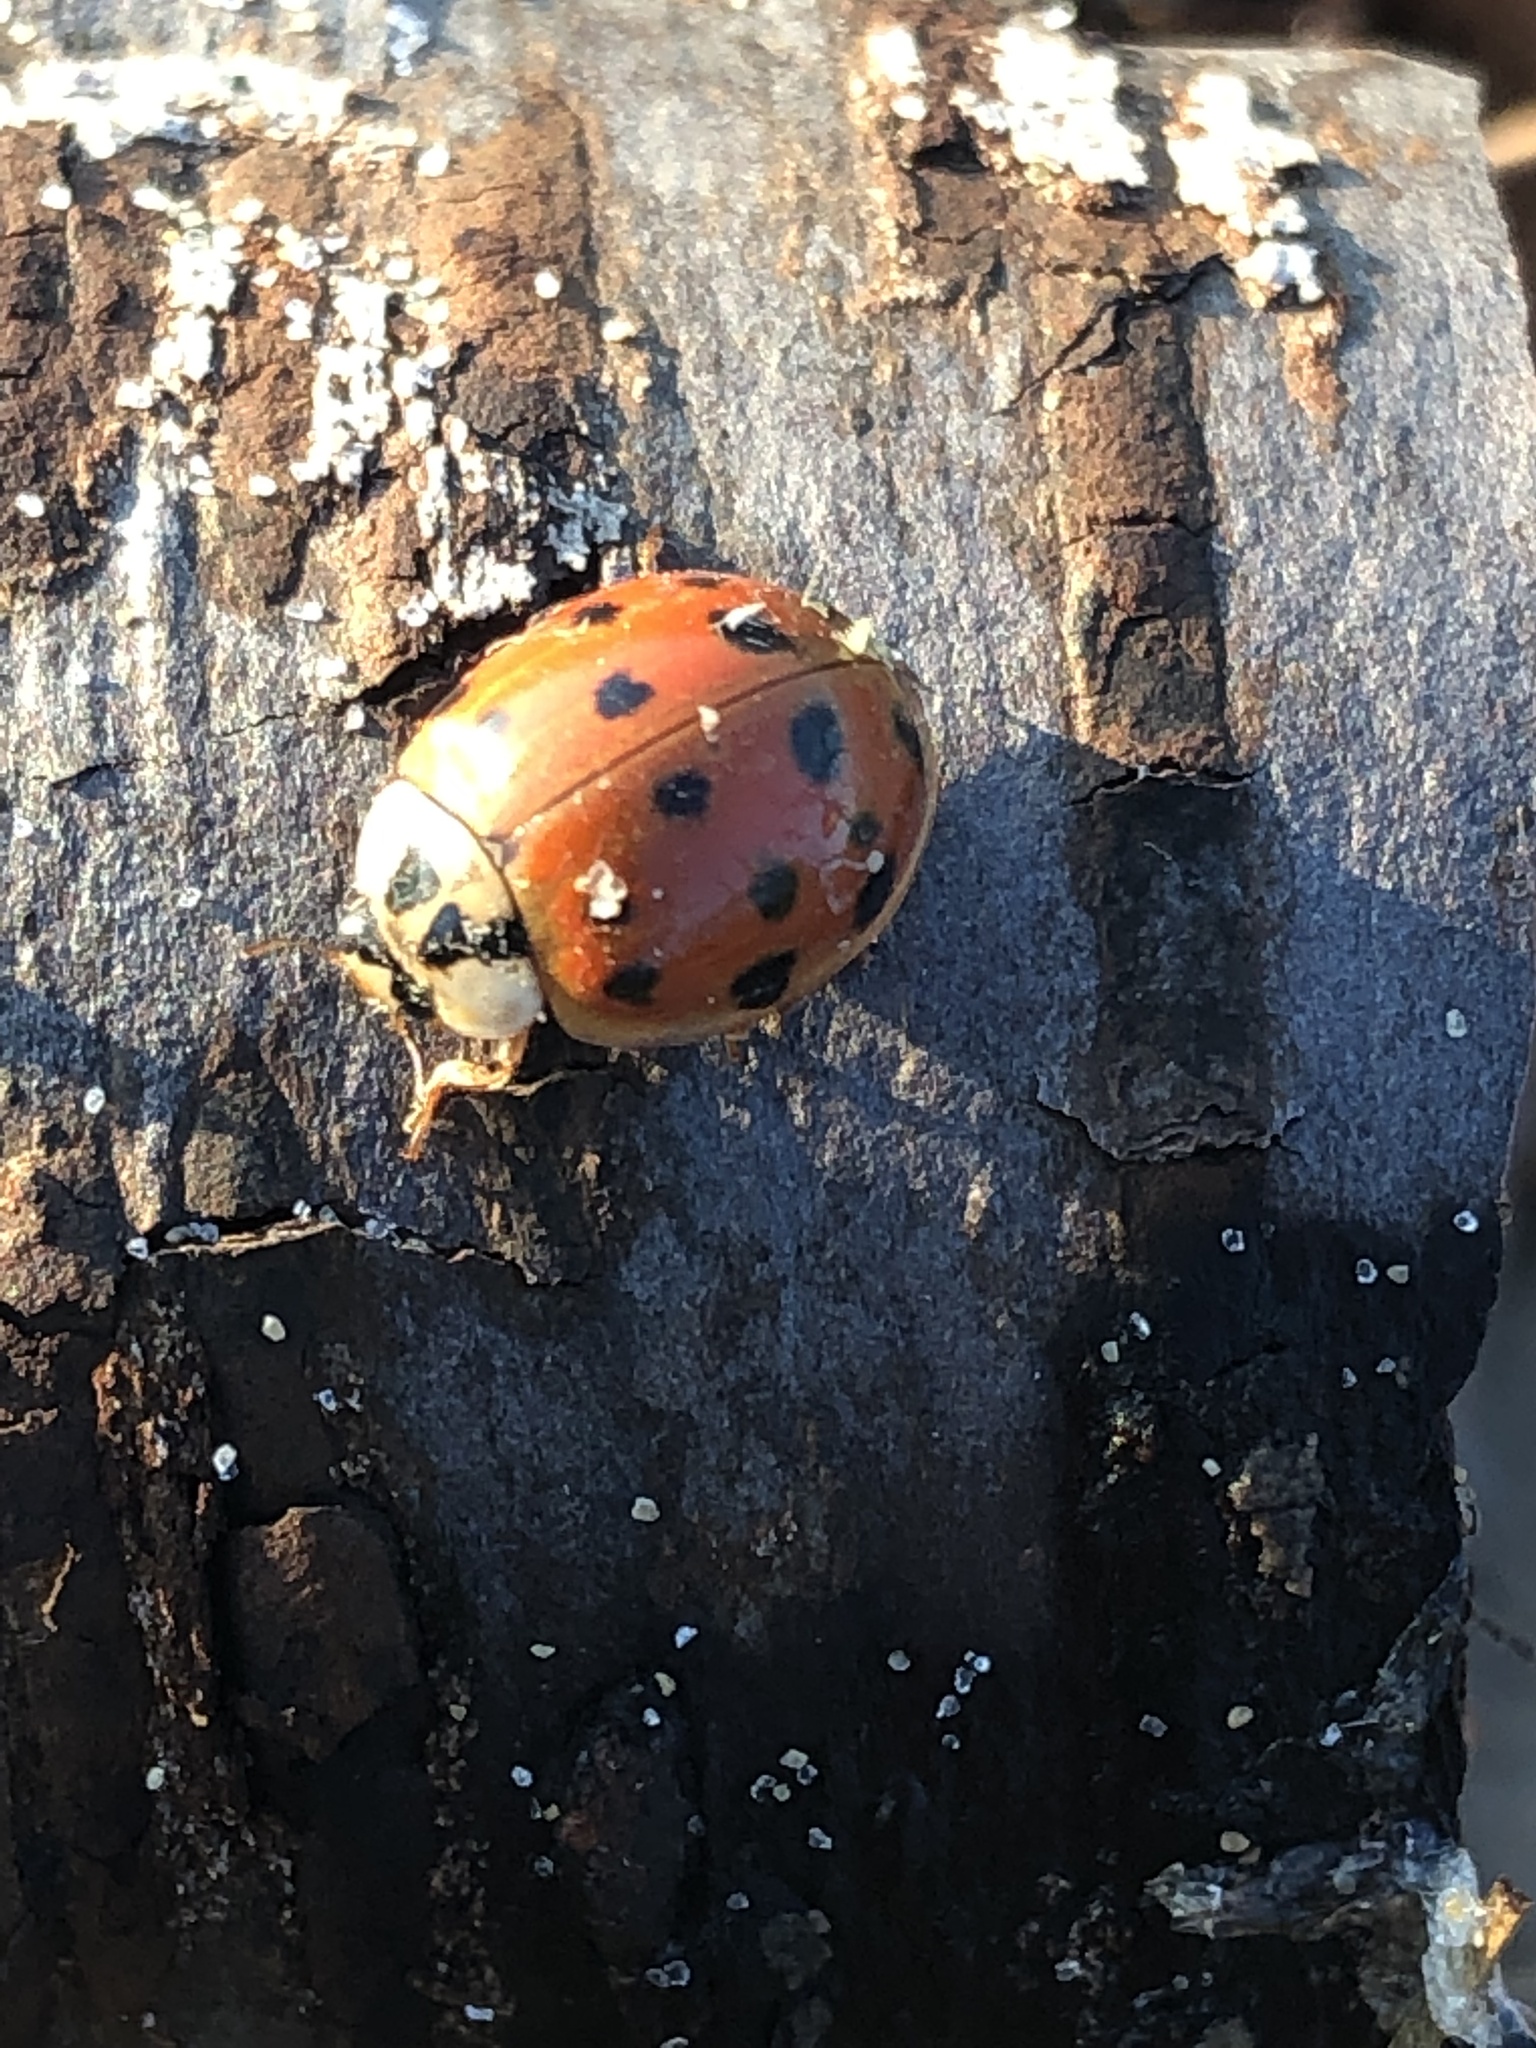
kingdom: Animalia
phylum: Arthropoda
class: Insecta
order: Coleoptera
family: Coccinellidae
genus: Harmonia
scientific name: Harmonia axyridis
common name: Harlequin ladybird
